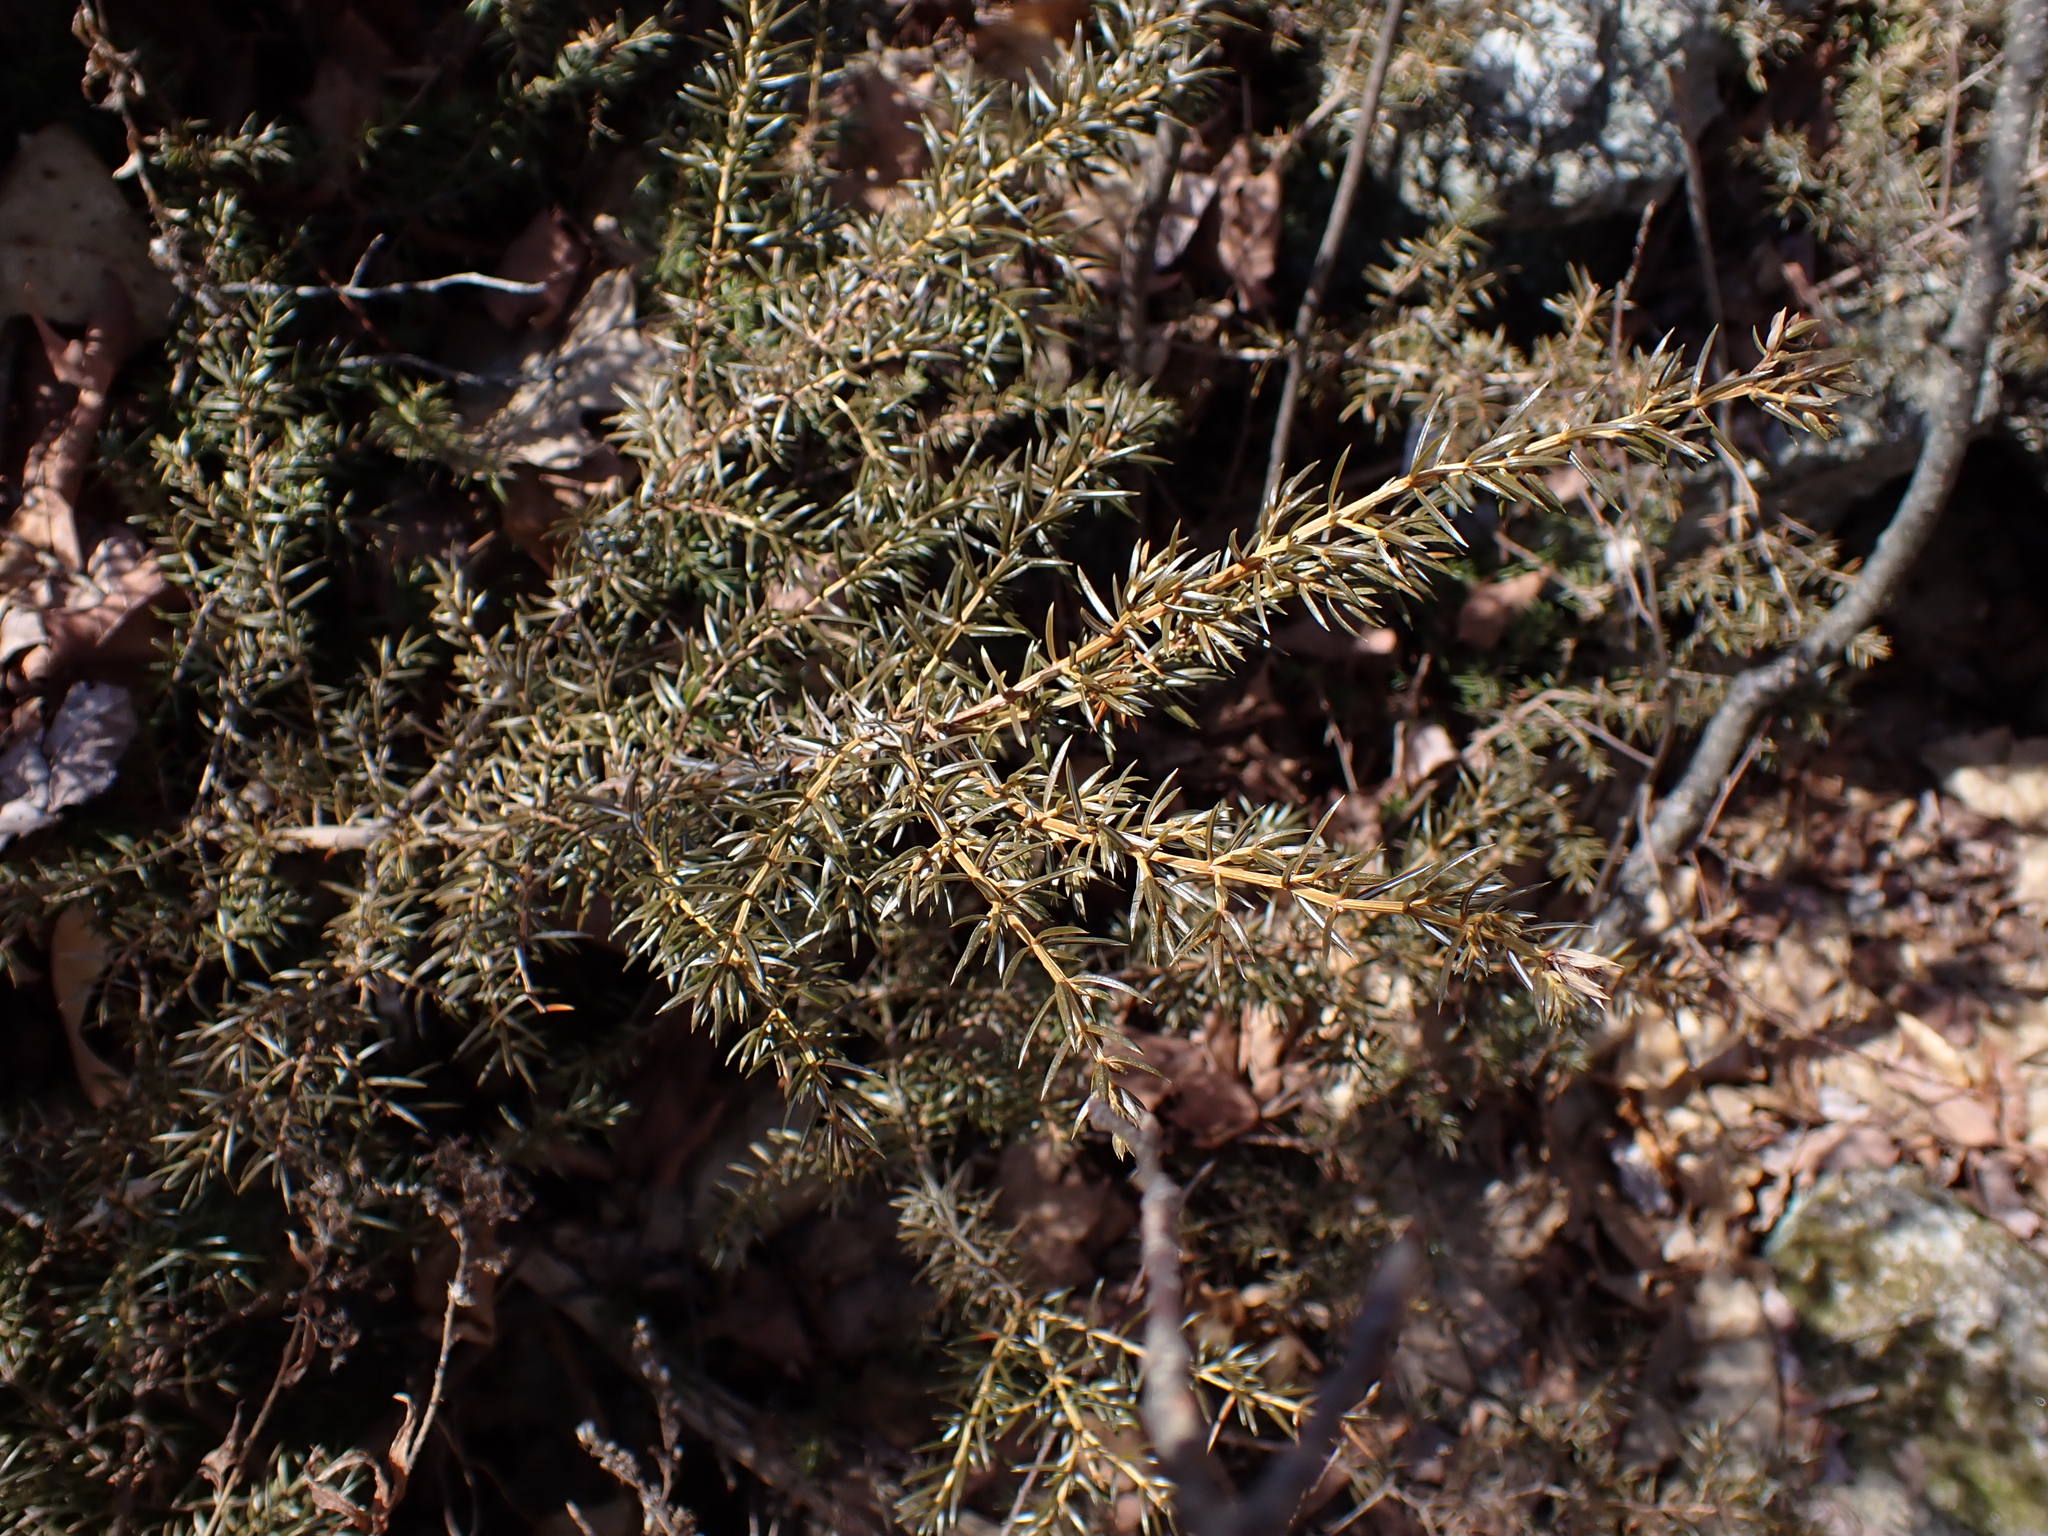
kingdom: Plantae
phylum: Tracheophyta
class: Pinopsida
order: Pinales
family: Cupressaceae
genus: Juniperus
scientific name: Juniperus communis
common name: Common juniper
